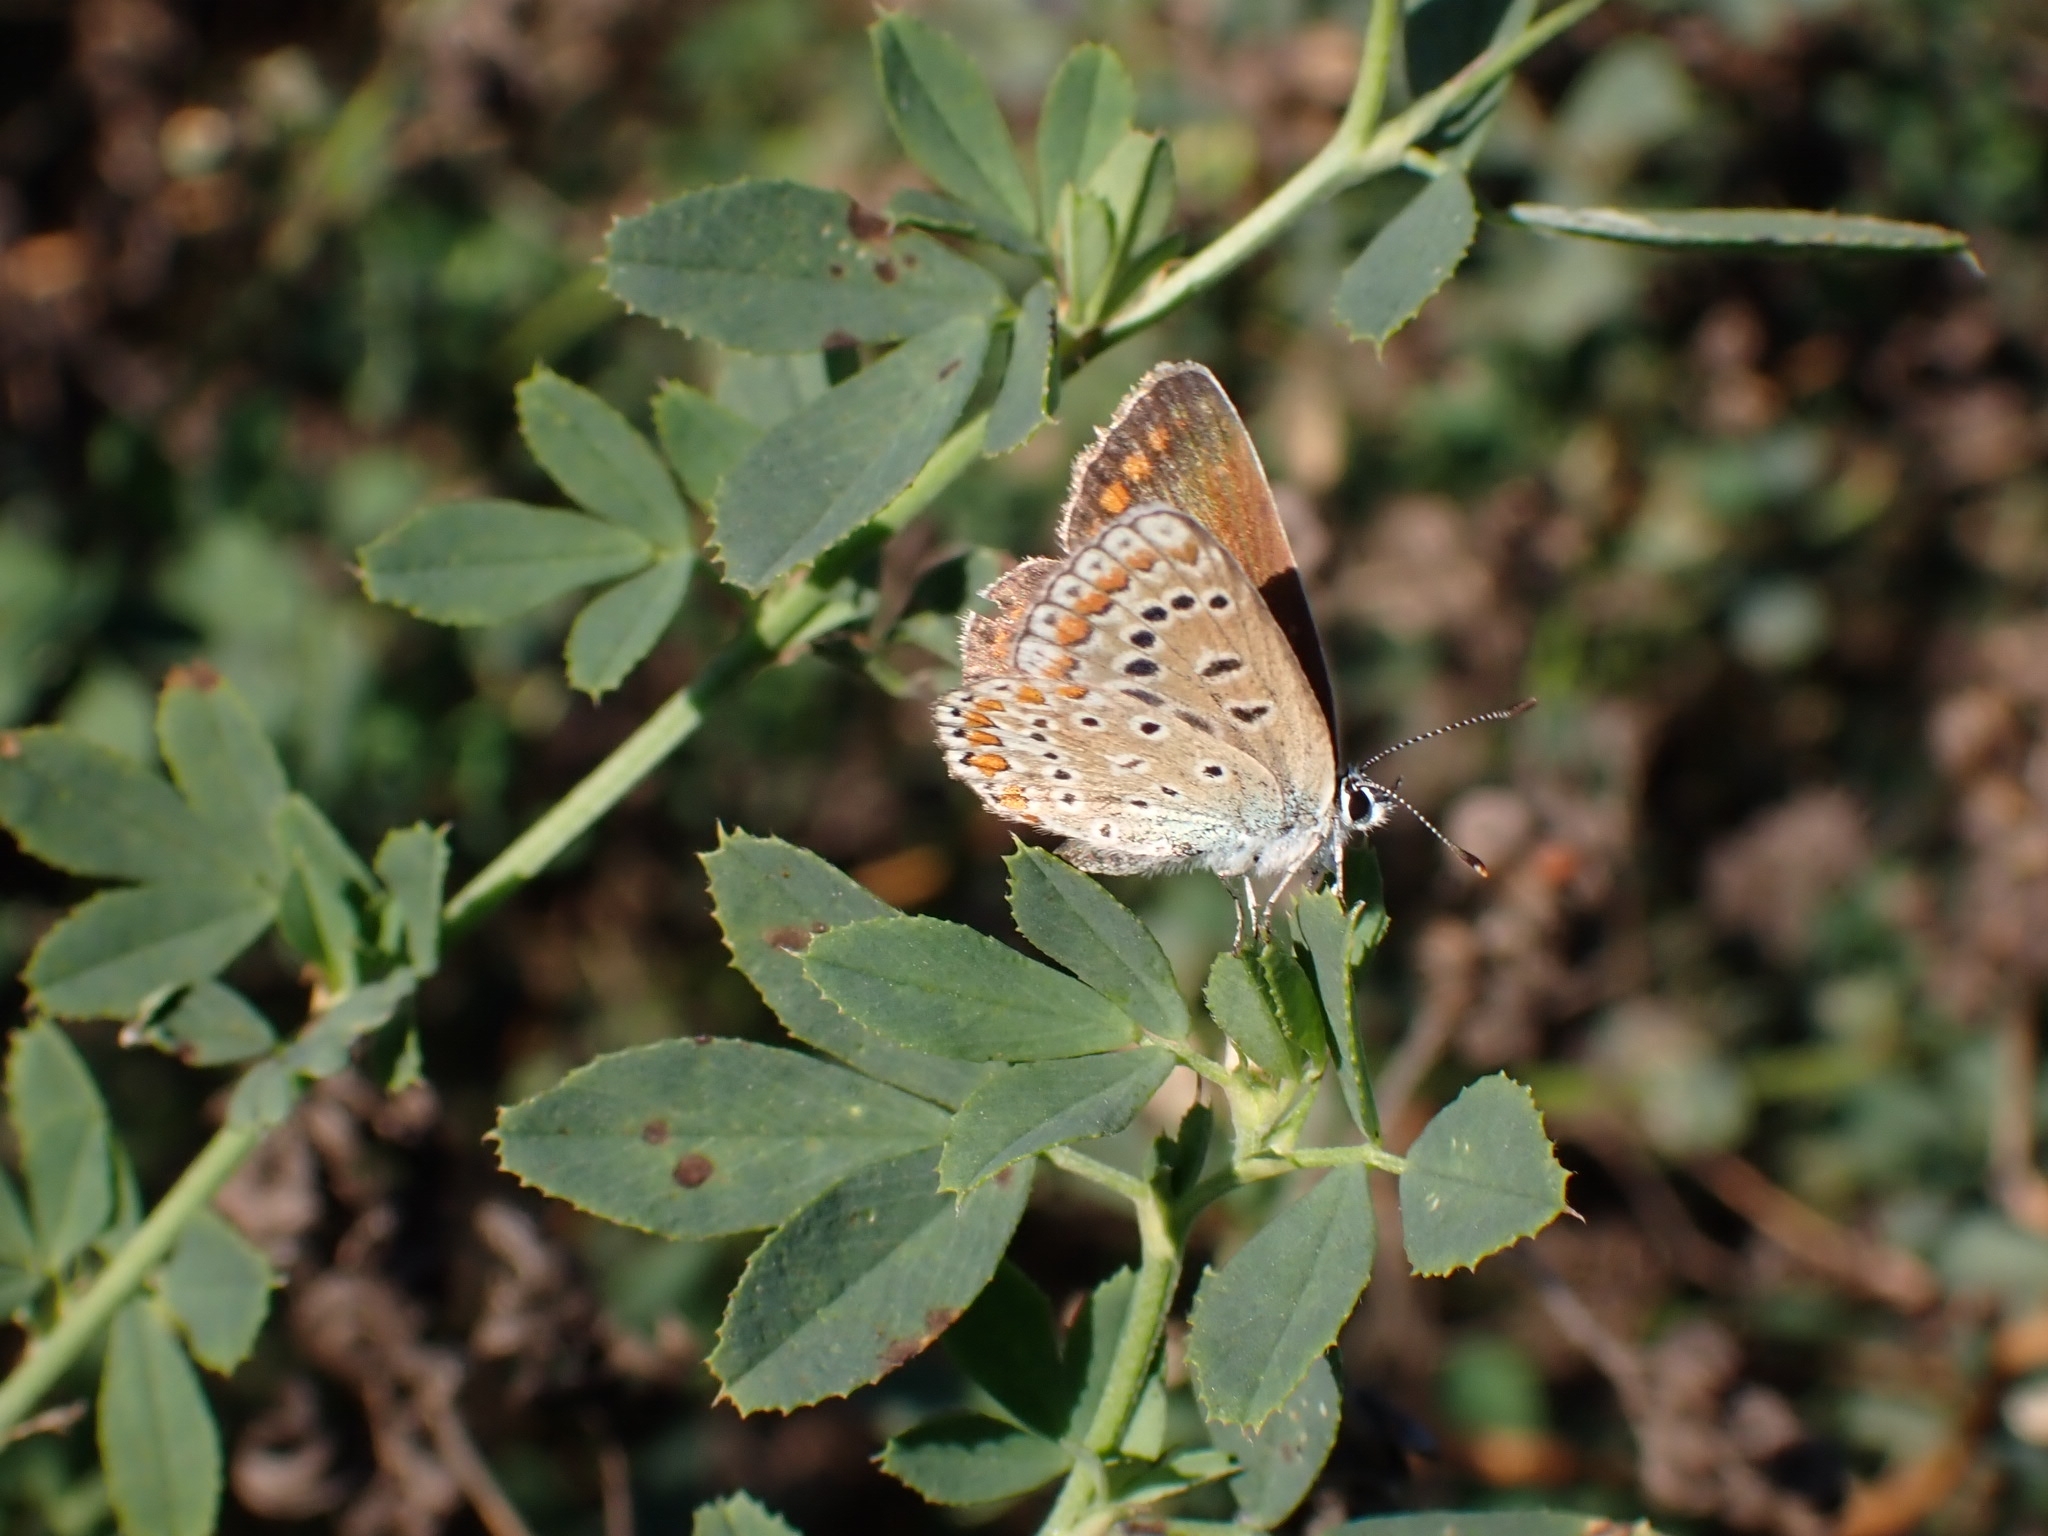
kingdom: Animalia
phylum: Arthropoda
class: Insecta
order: Lepidoptera
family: Lycaenidae
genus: Polyommatus
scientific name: Polyommatus icarus
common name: Common blue
